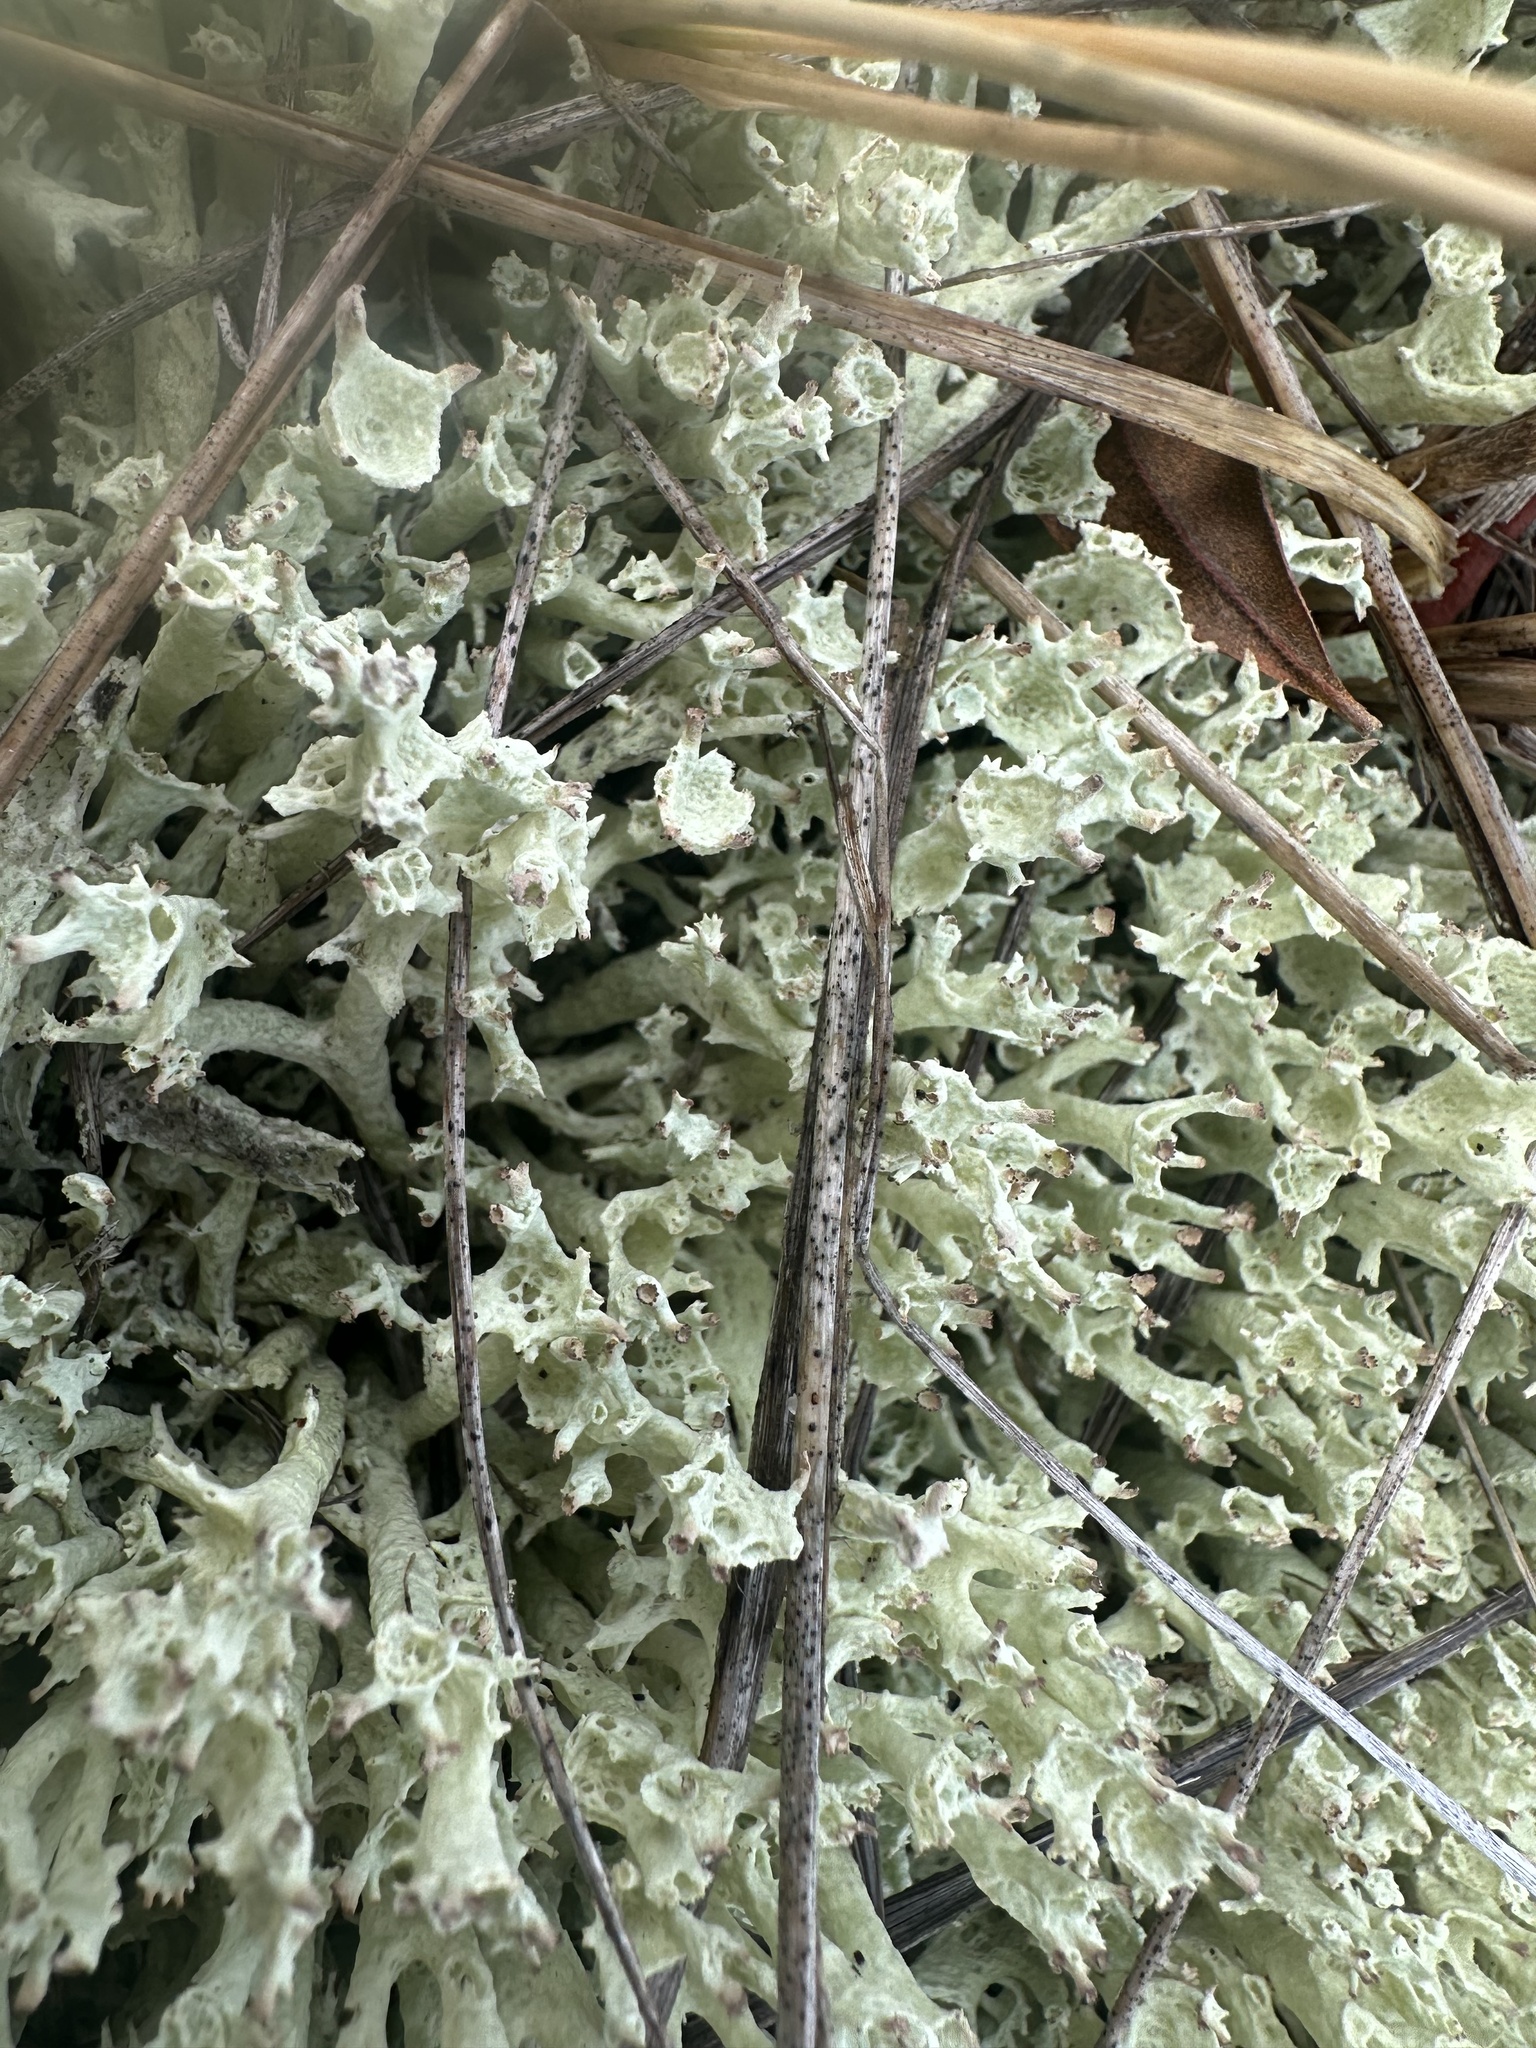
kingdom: Fungi
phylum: Ascomycota
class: Lecanoromycetes
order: Lecanorales
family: Cladoniaceae
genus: Cladonia
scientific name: Cladonia boryi
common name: Fishnet cladonia
